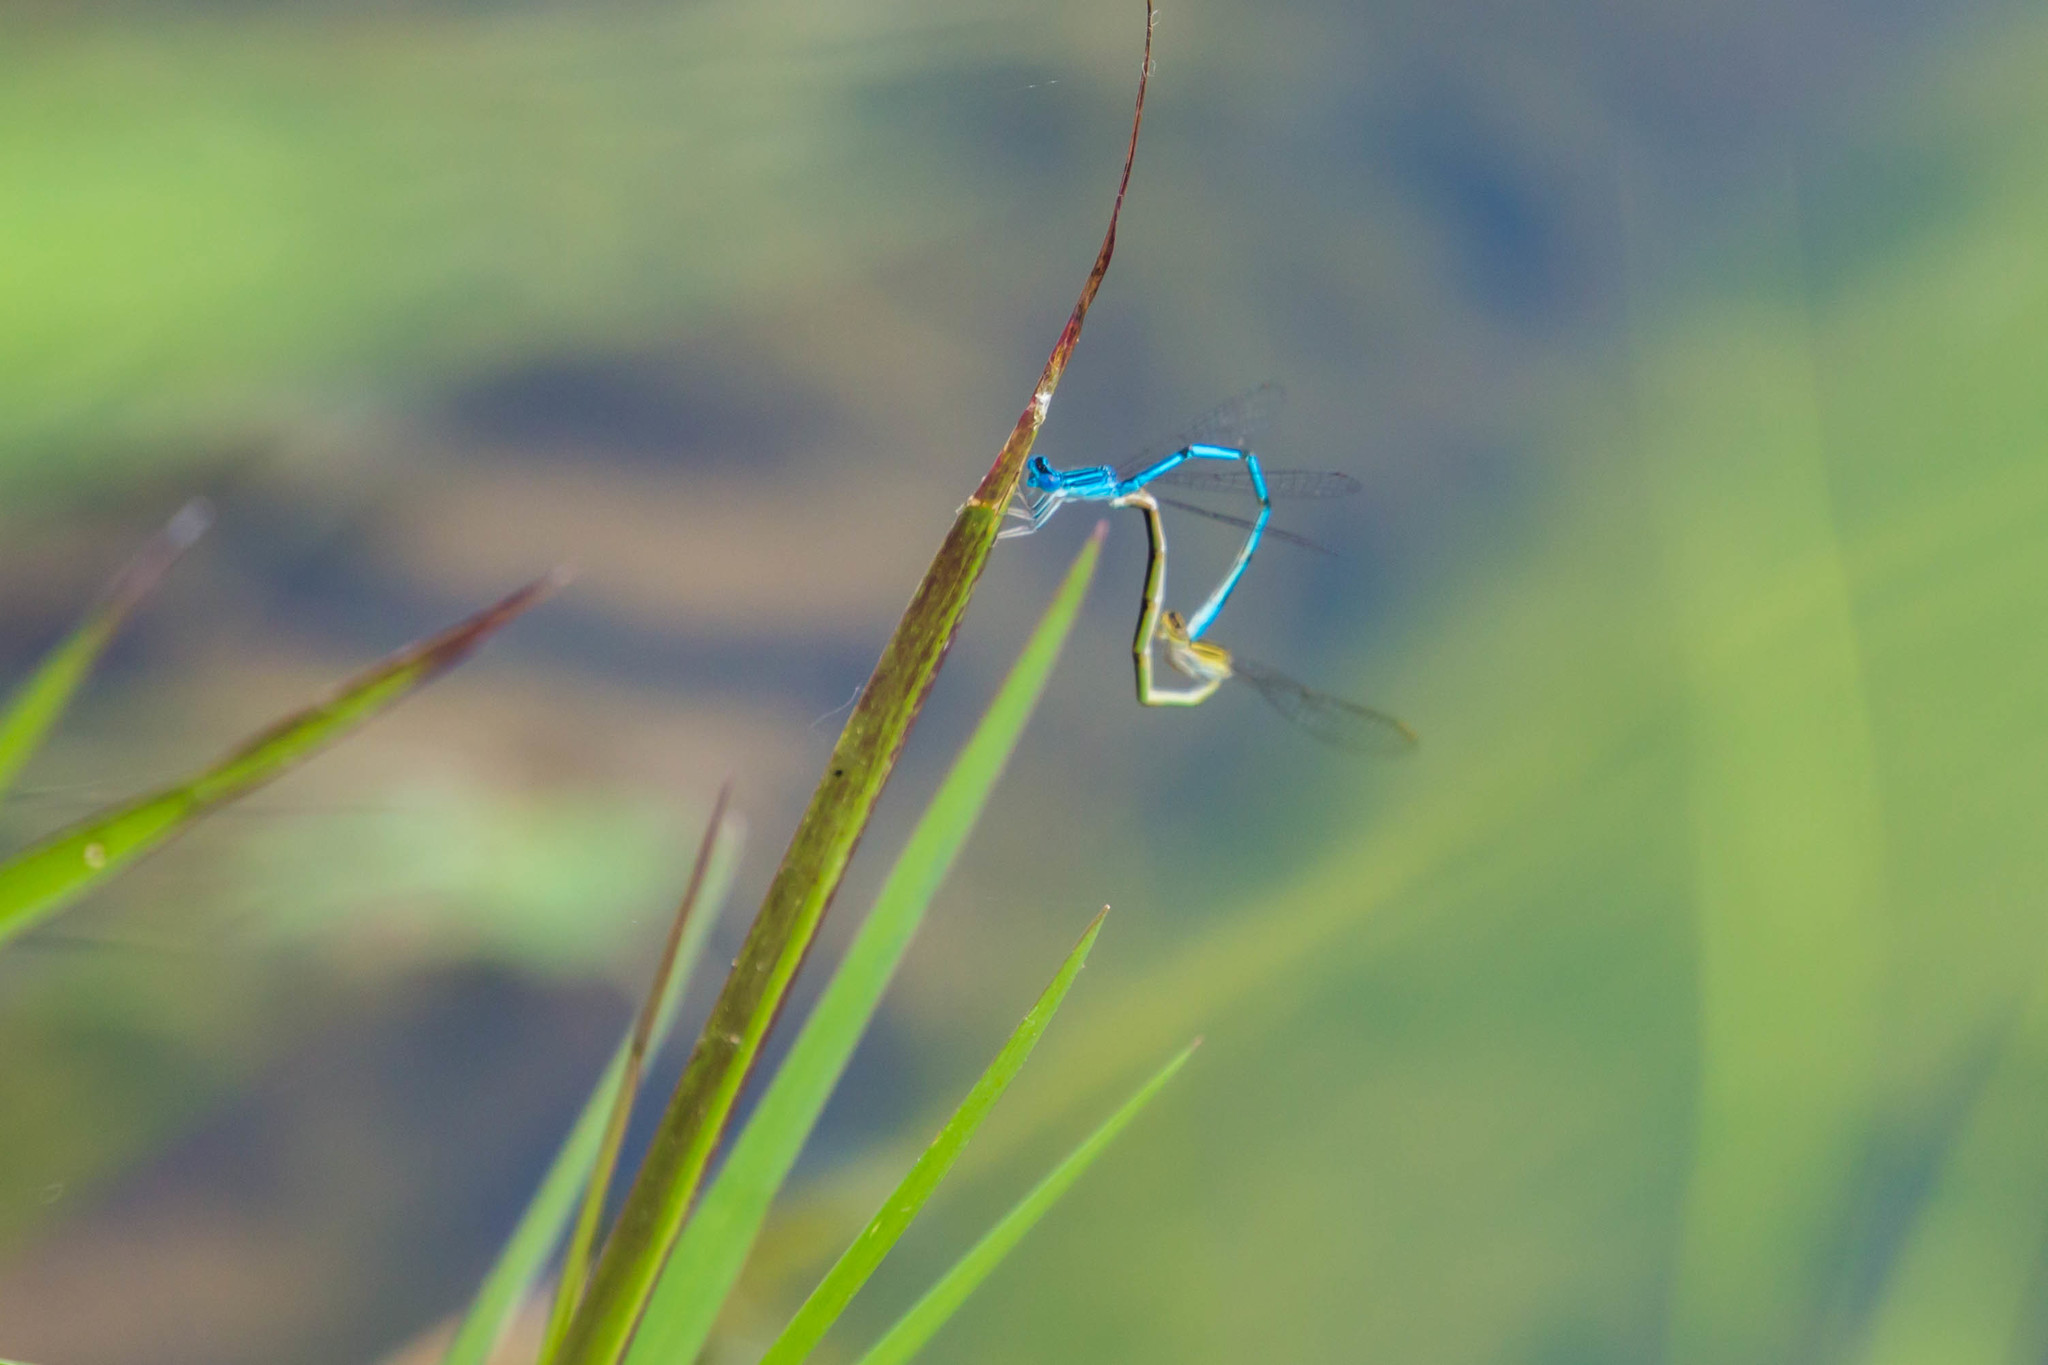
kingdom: Animalia
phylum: Arthropoda
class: Insecta
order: Odonata
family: Coenagrionidae
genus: Enallagma
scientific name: Enallagma basidens
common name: Double-striped bluet
